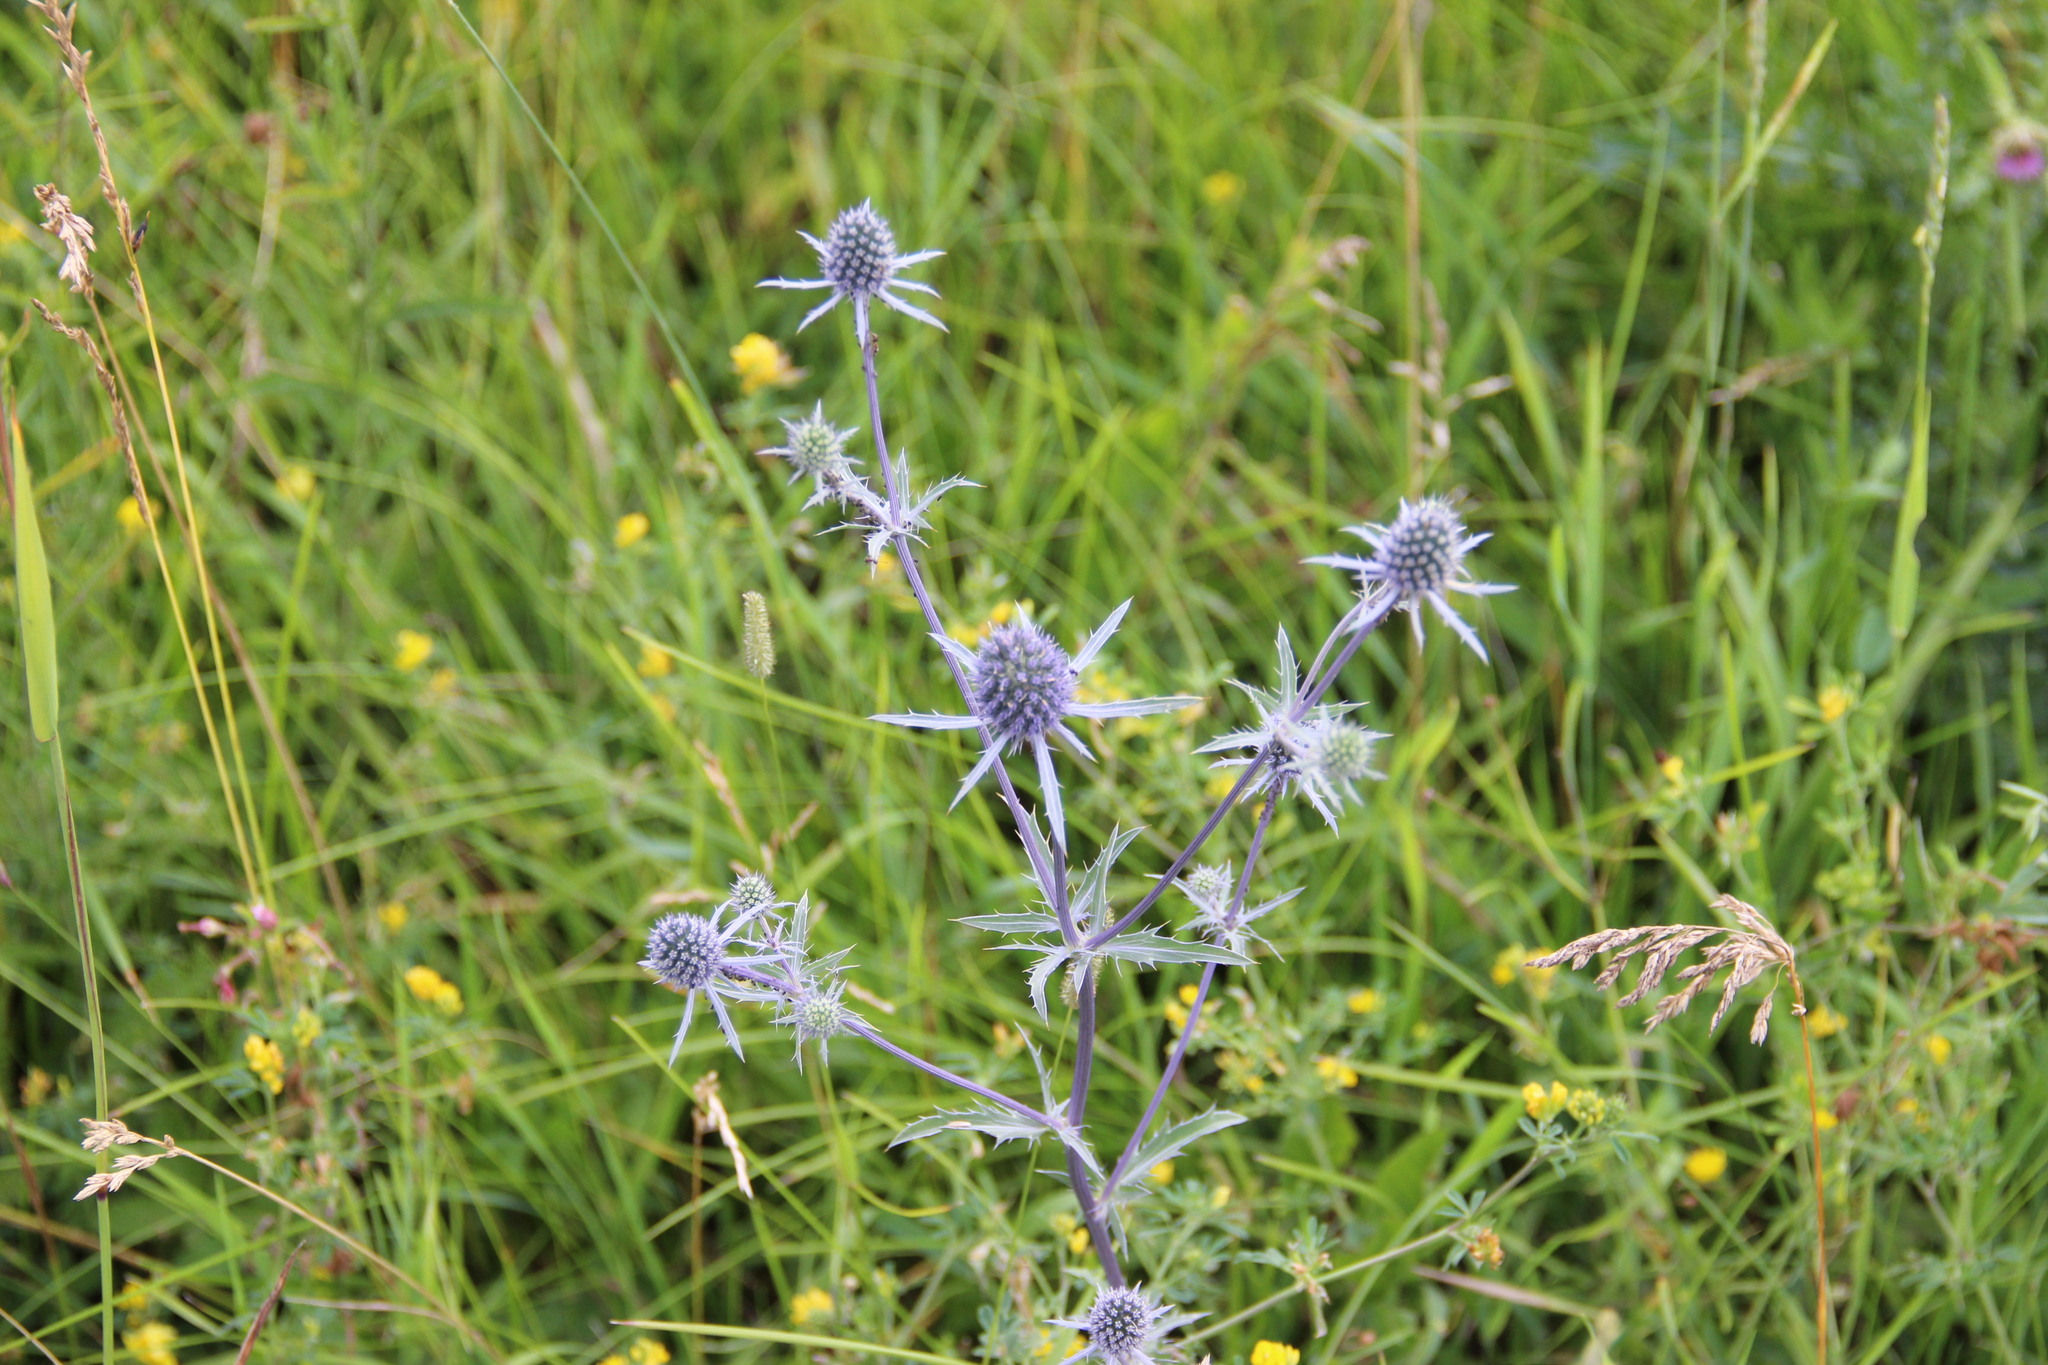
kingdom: Plantae
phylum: Tracheophyta
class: Magnoliopsida
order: Apiales
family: Apiaceae
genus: Eryngium
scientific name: Eryngium planum
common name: Blue eryngo
